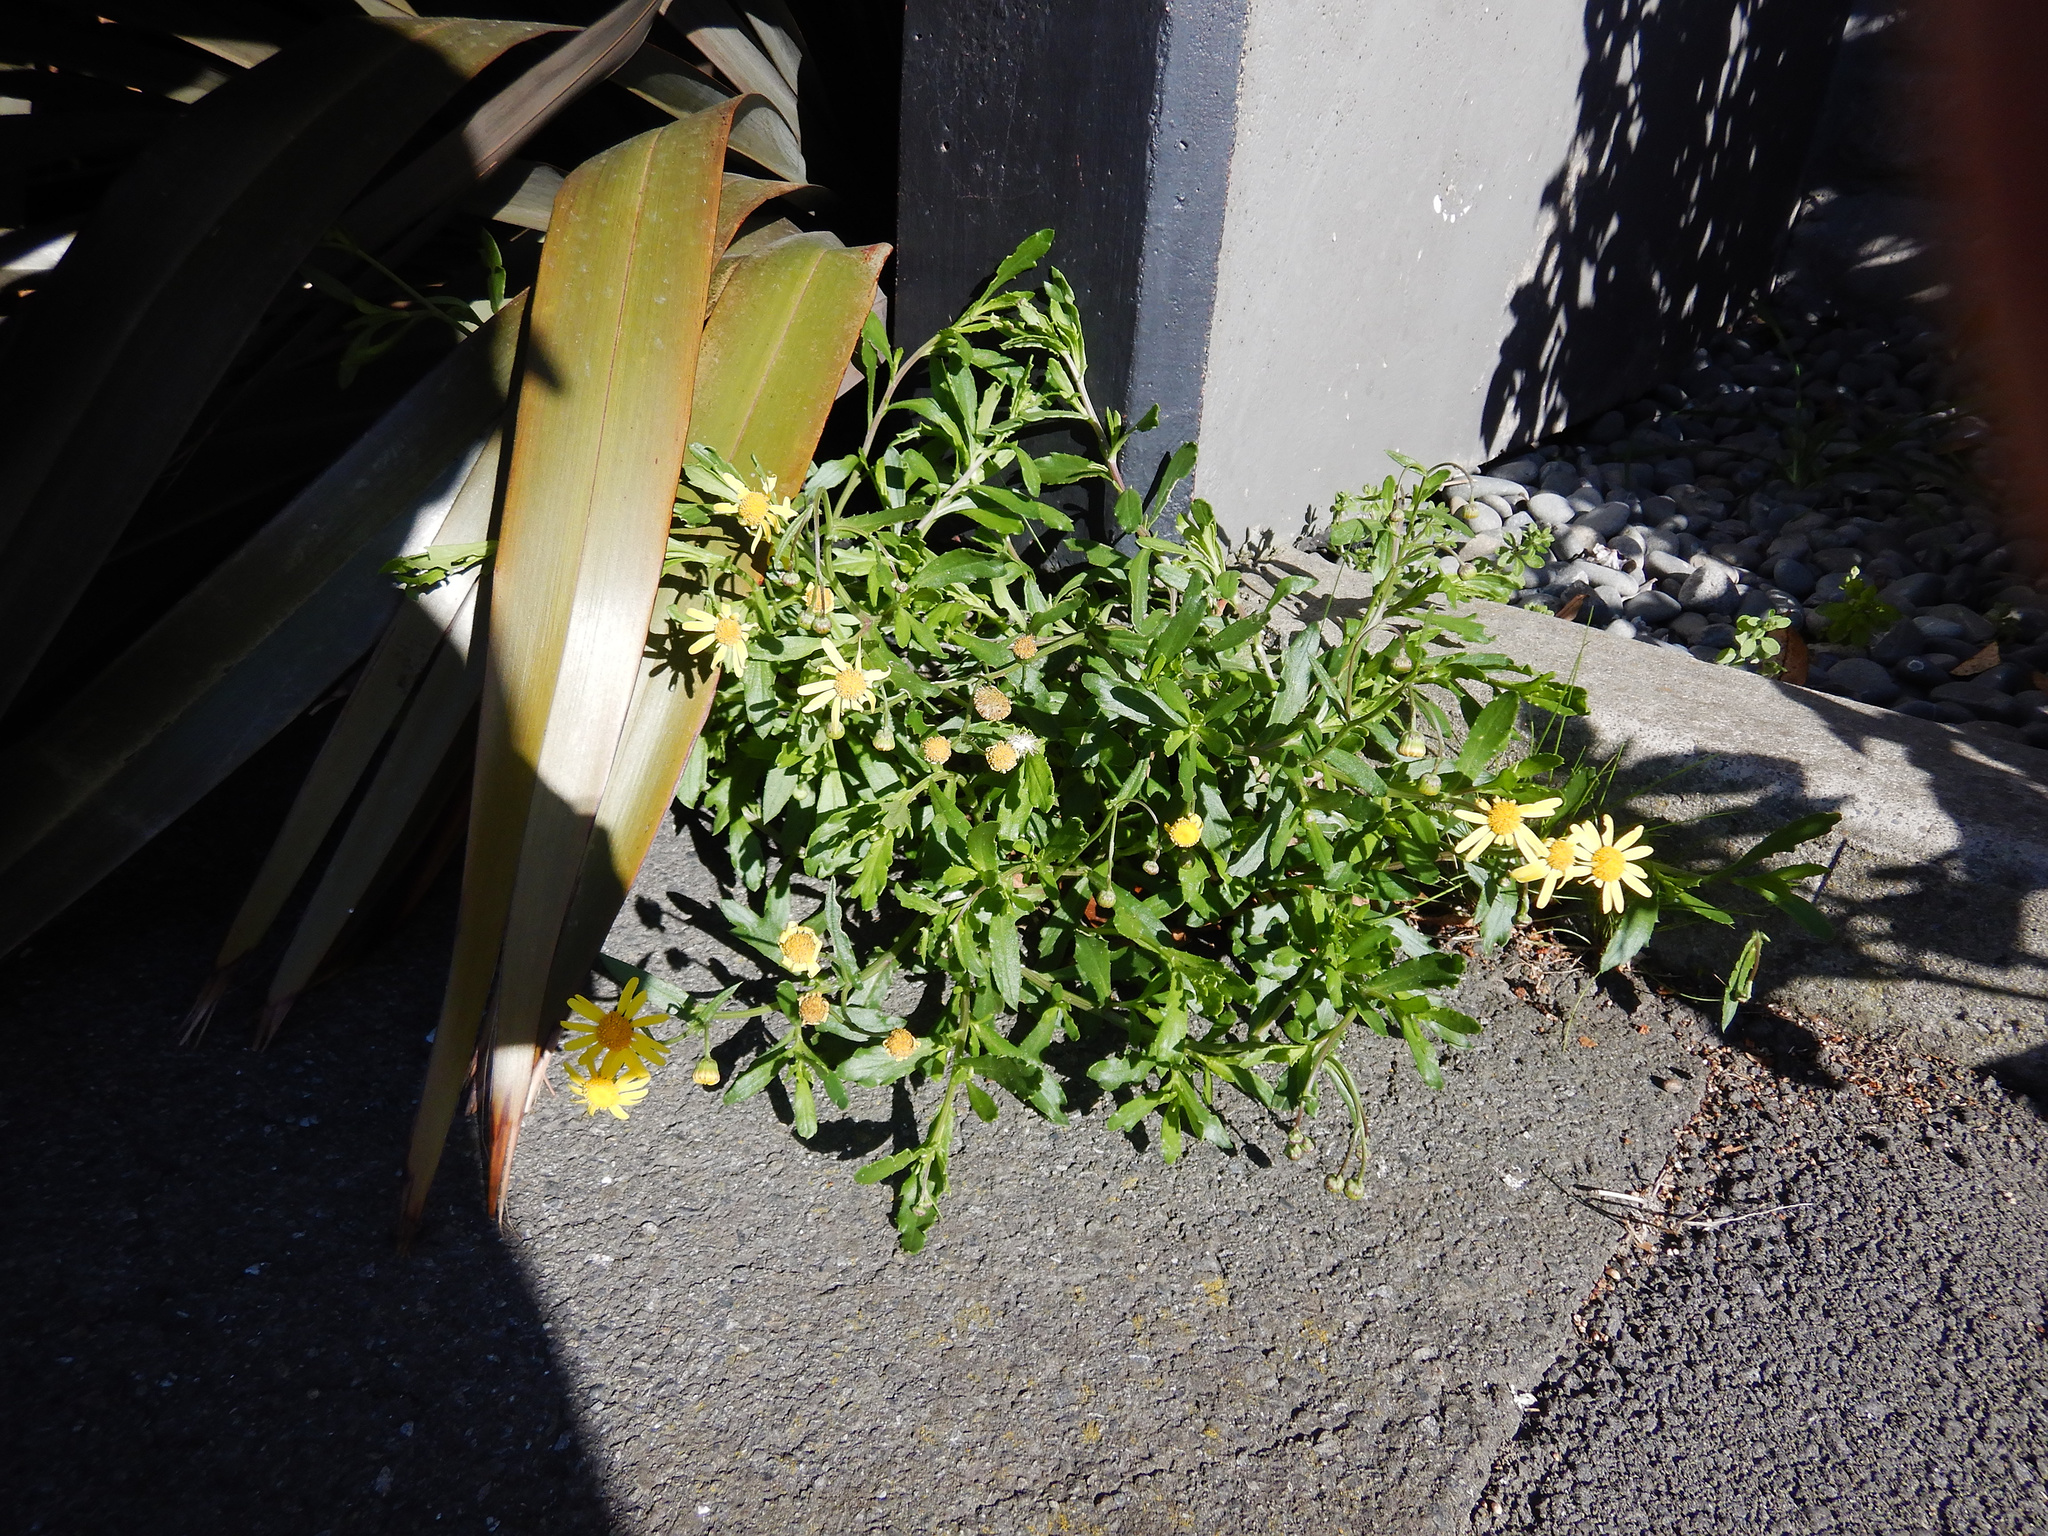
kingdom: Plantae
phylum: Tracheophyta
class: Magnoliopsida
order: Asterales
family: Asteraceae
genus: Senecio
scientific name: Senecio skirrhodon
